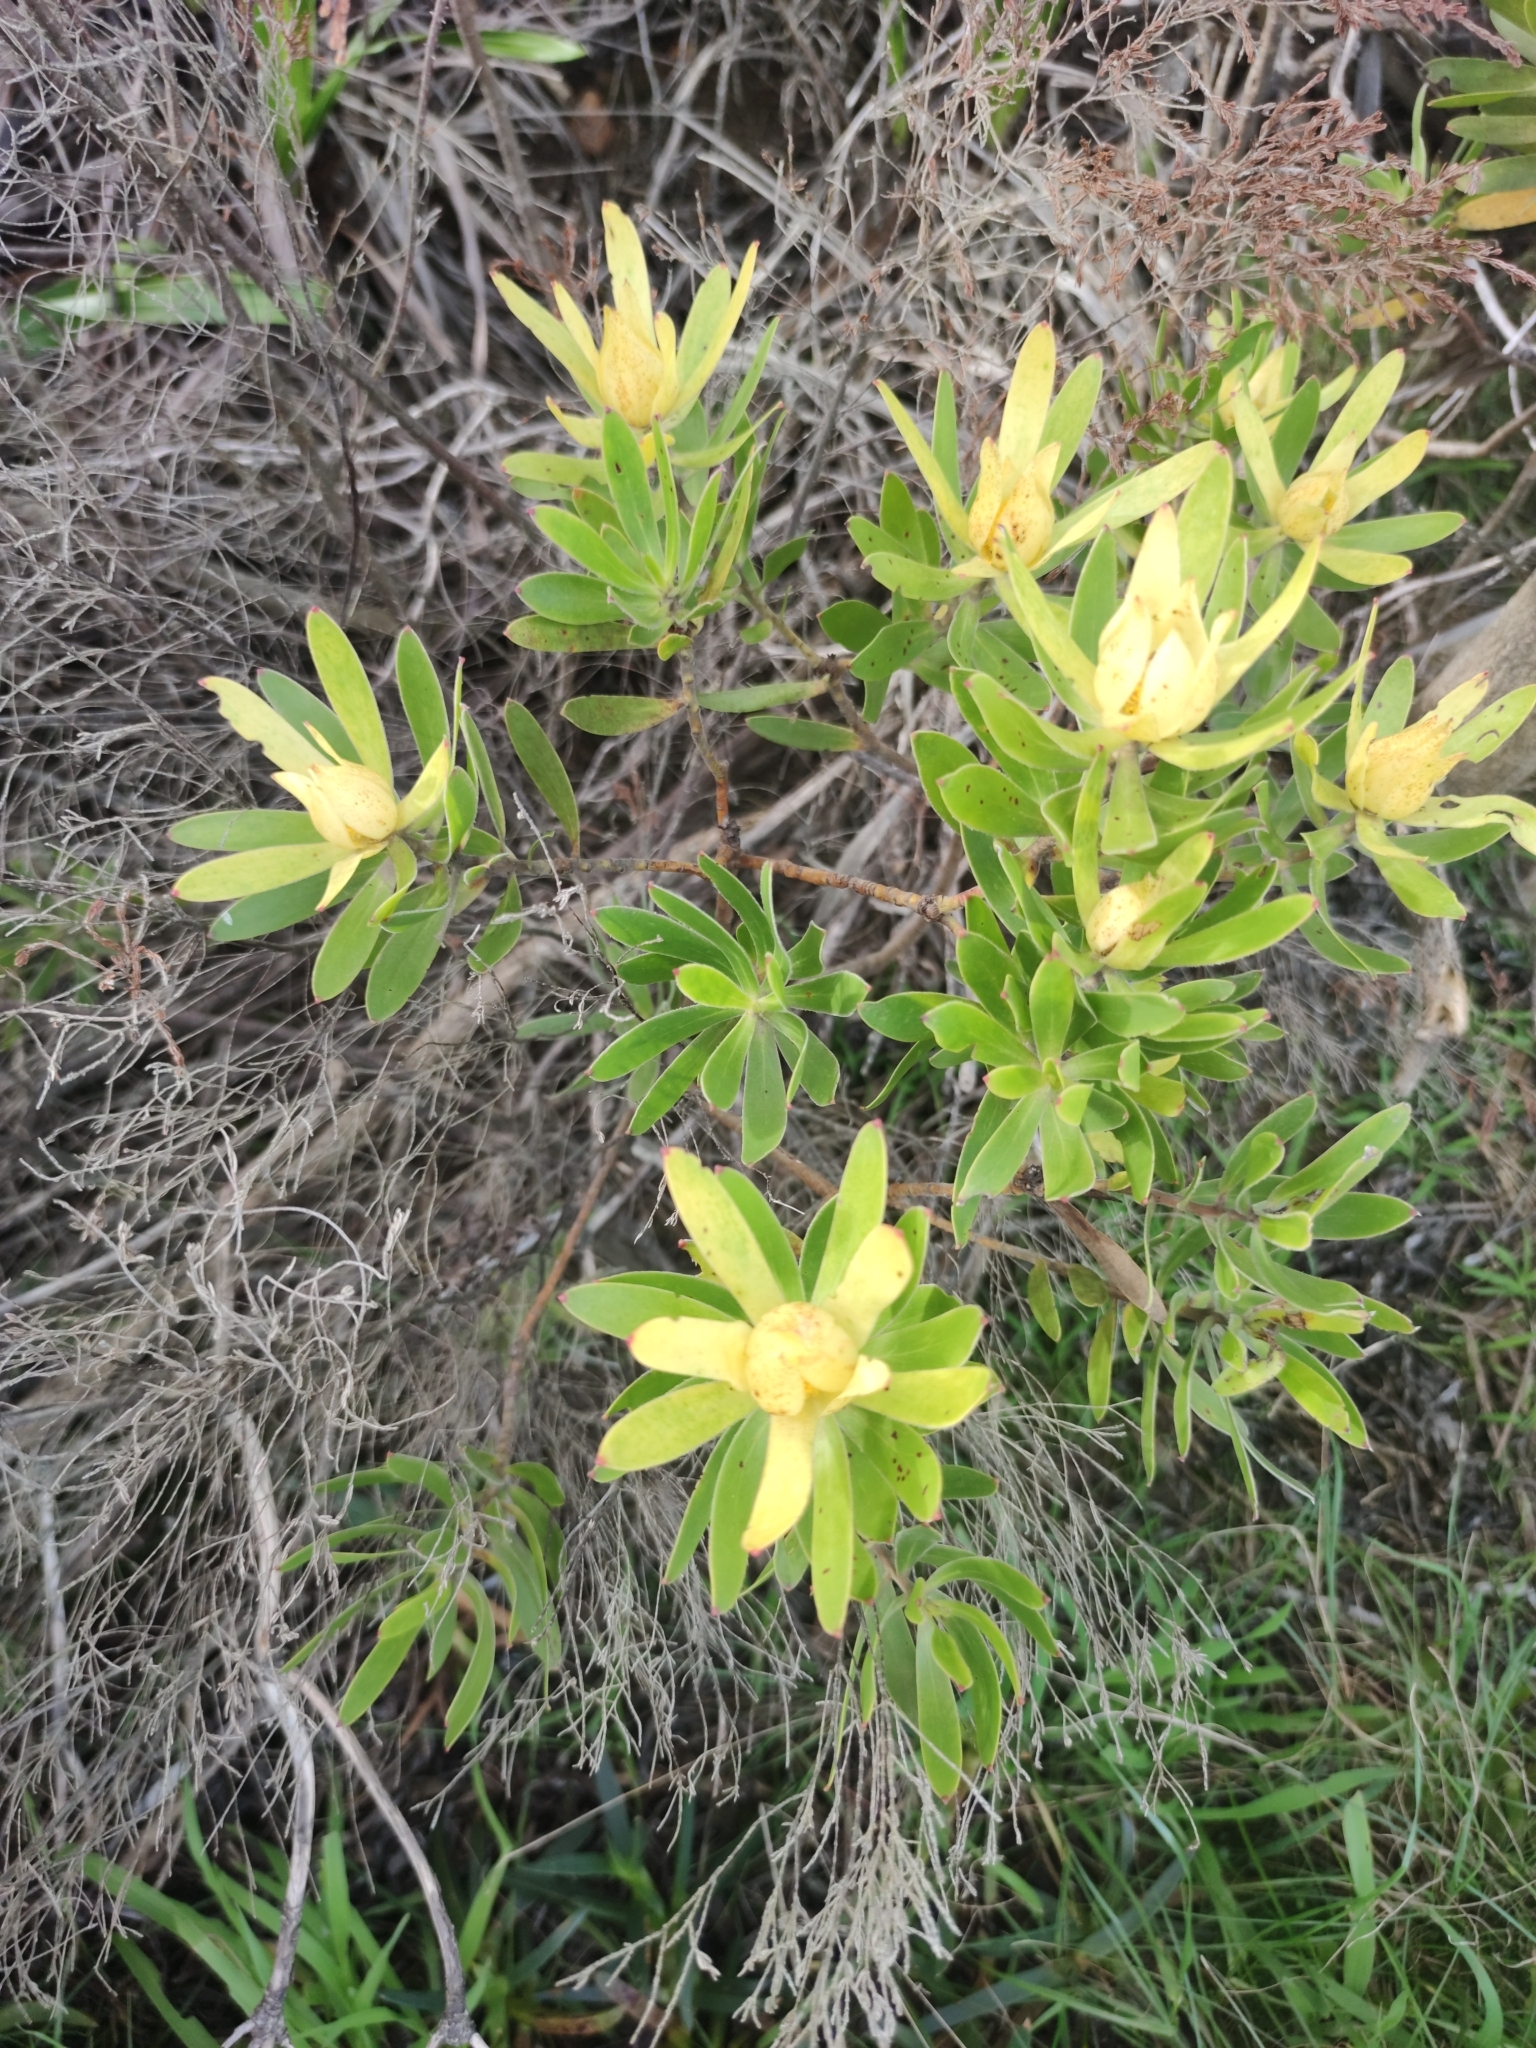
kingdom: Plantae
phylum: Tracheophyta
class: Magnoliopsida
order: Proteales
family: Proteaceae
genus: Leucadendron
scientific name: Leucadendron laureolum
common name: Golden sunshinebush
